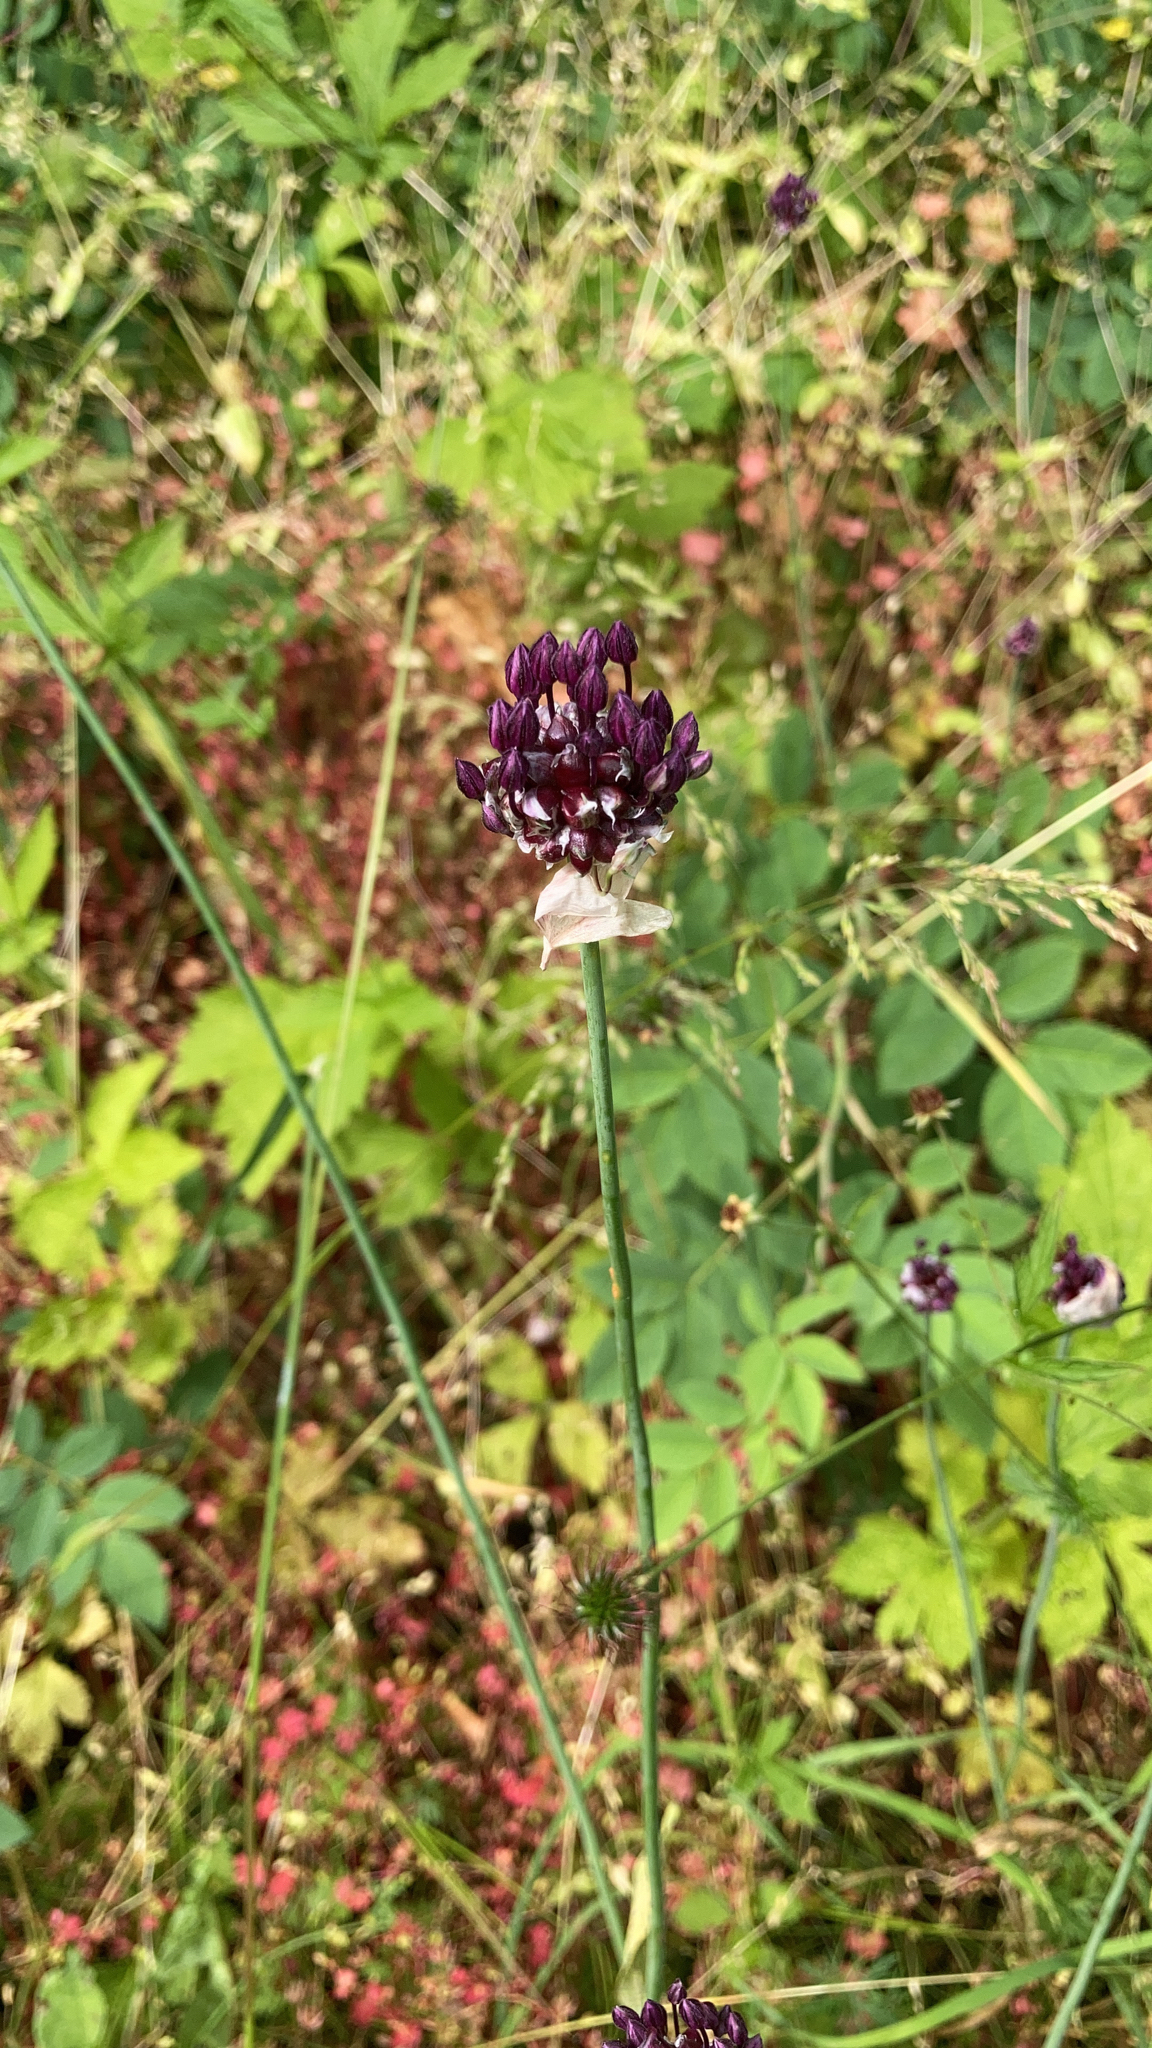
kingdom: Plantae
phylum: Tracheophyta
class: Liliopsida
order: Asparagales
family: Amaryllidaceae
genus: Allium
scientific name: Allium scorodoprasum
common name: Sand leek
